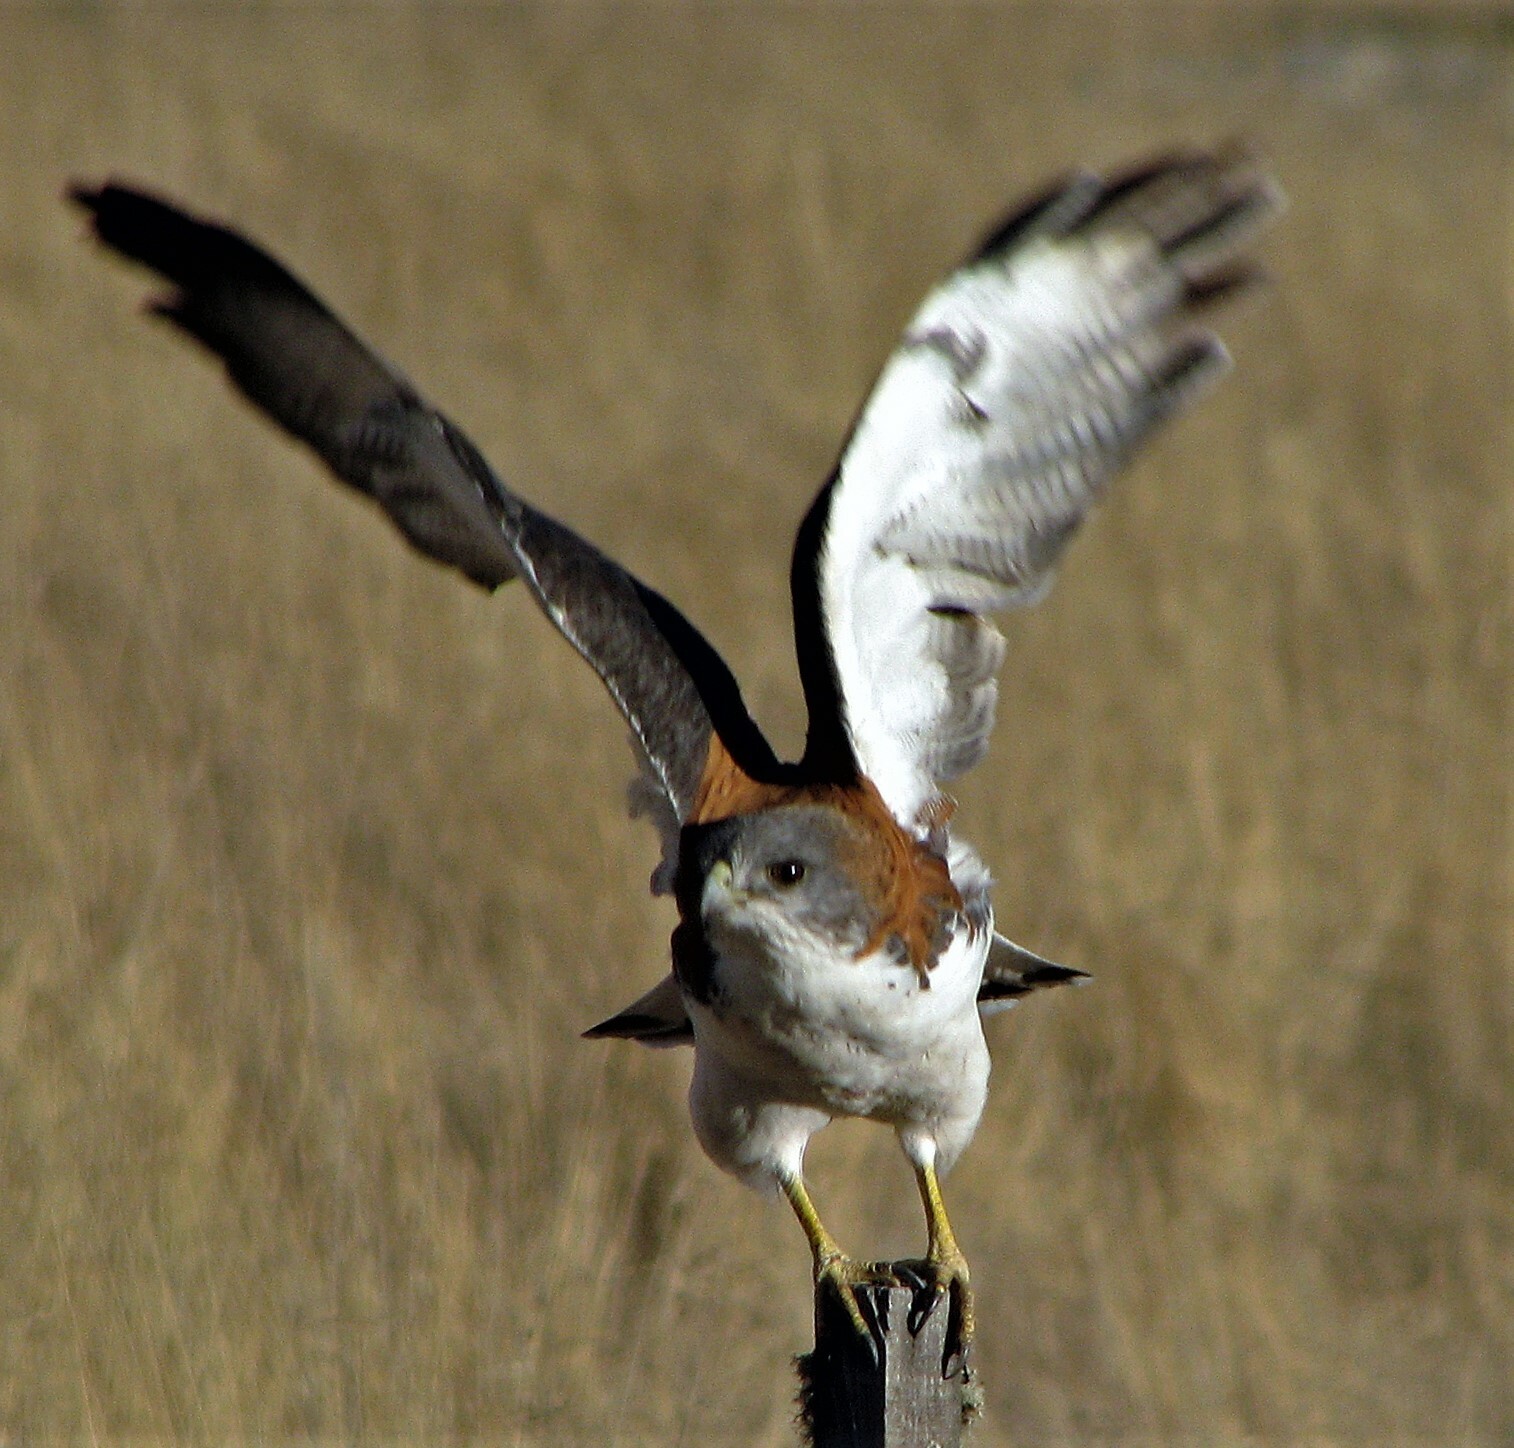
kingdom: Animalia
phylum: Chordata
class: Aves
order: Accipitriformes
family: Accipitridae
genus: Buteo
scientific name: Buteo polyosoma
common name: Variable hawk
